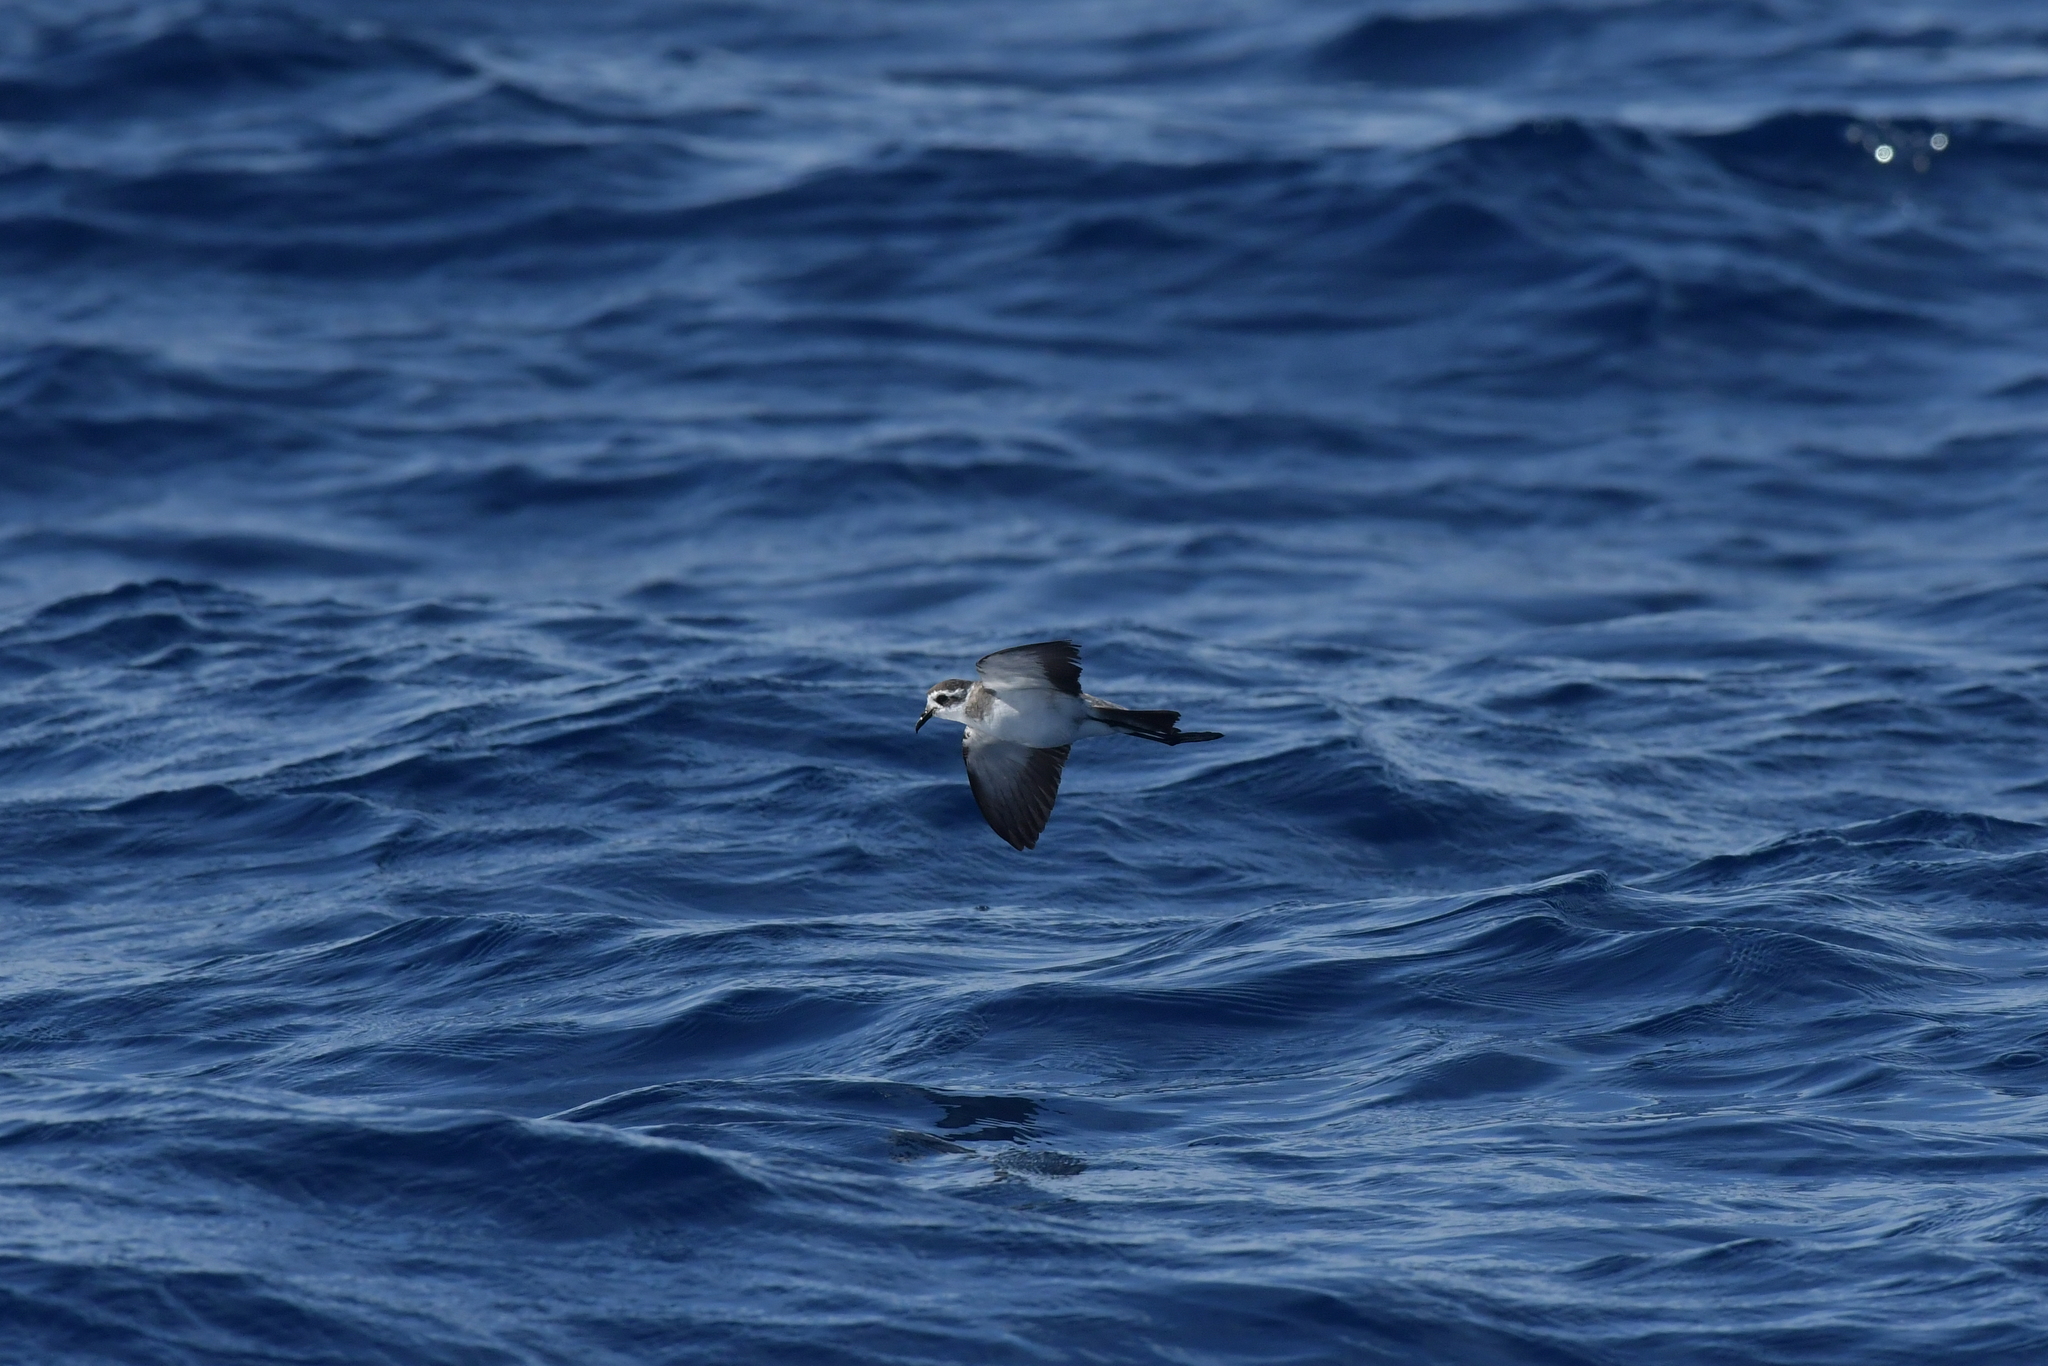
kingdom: Animalia
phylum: Chordata
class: Aves
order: Procellariiformes
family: Hydrobatidae
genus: Pelagodroma
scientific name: Pelagodroma marina
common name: White-faced storm-petrel
